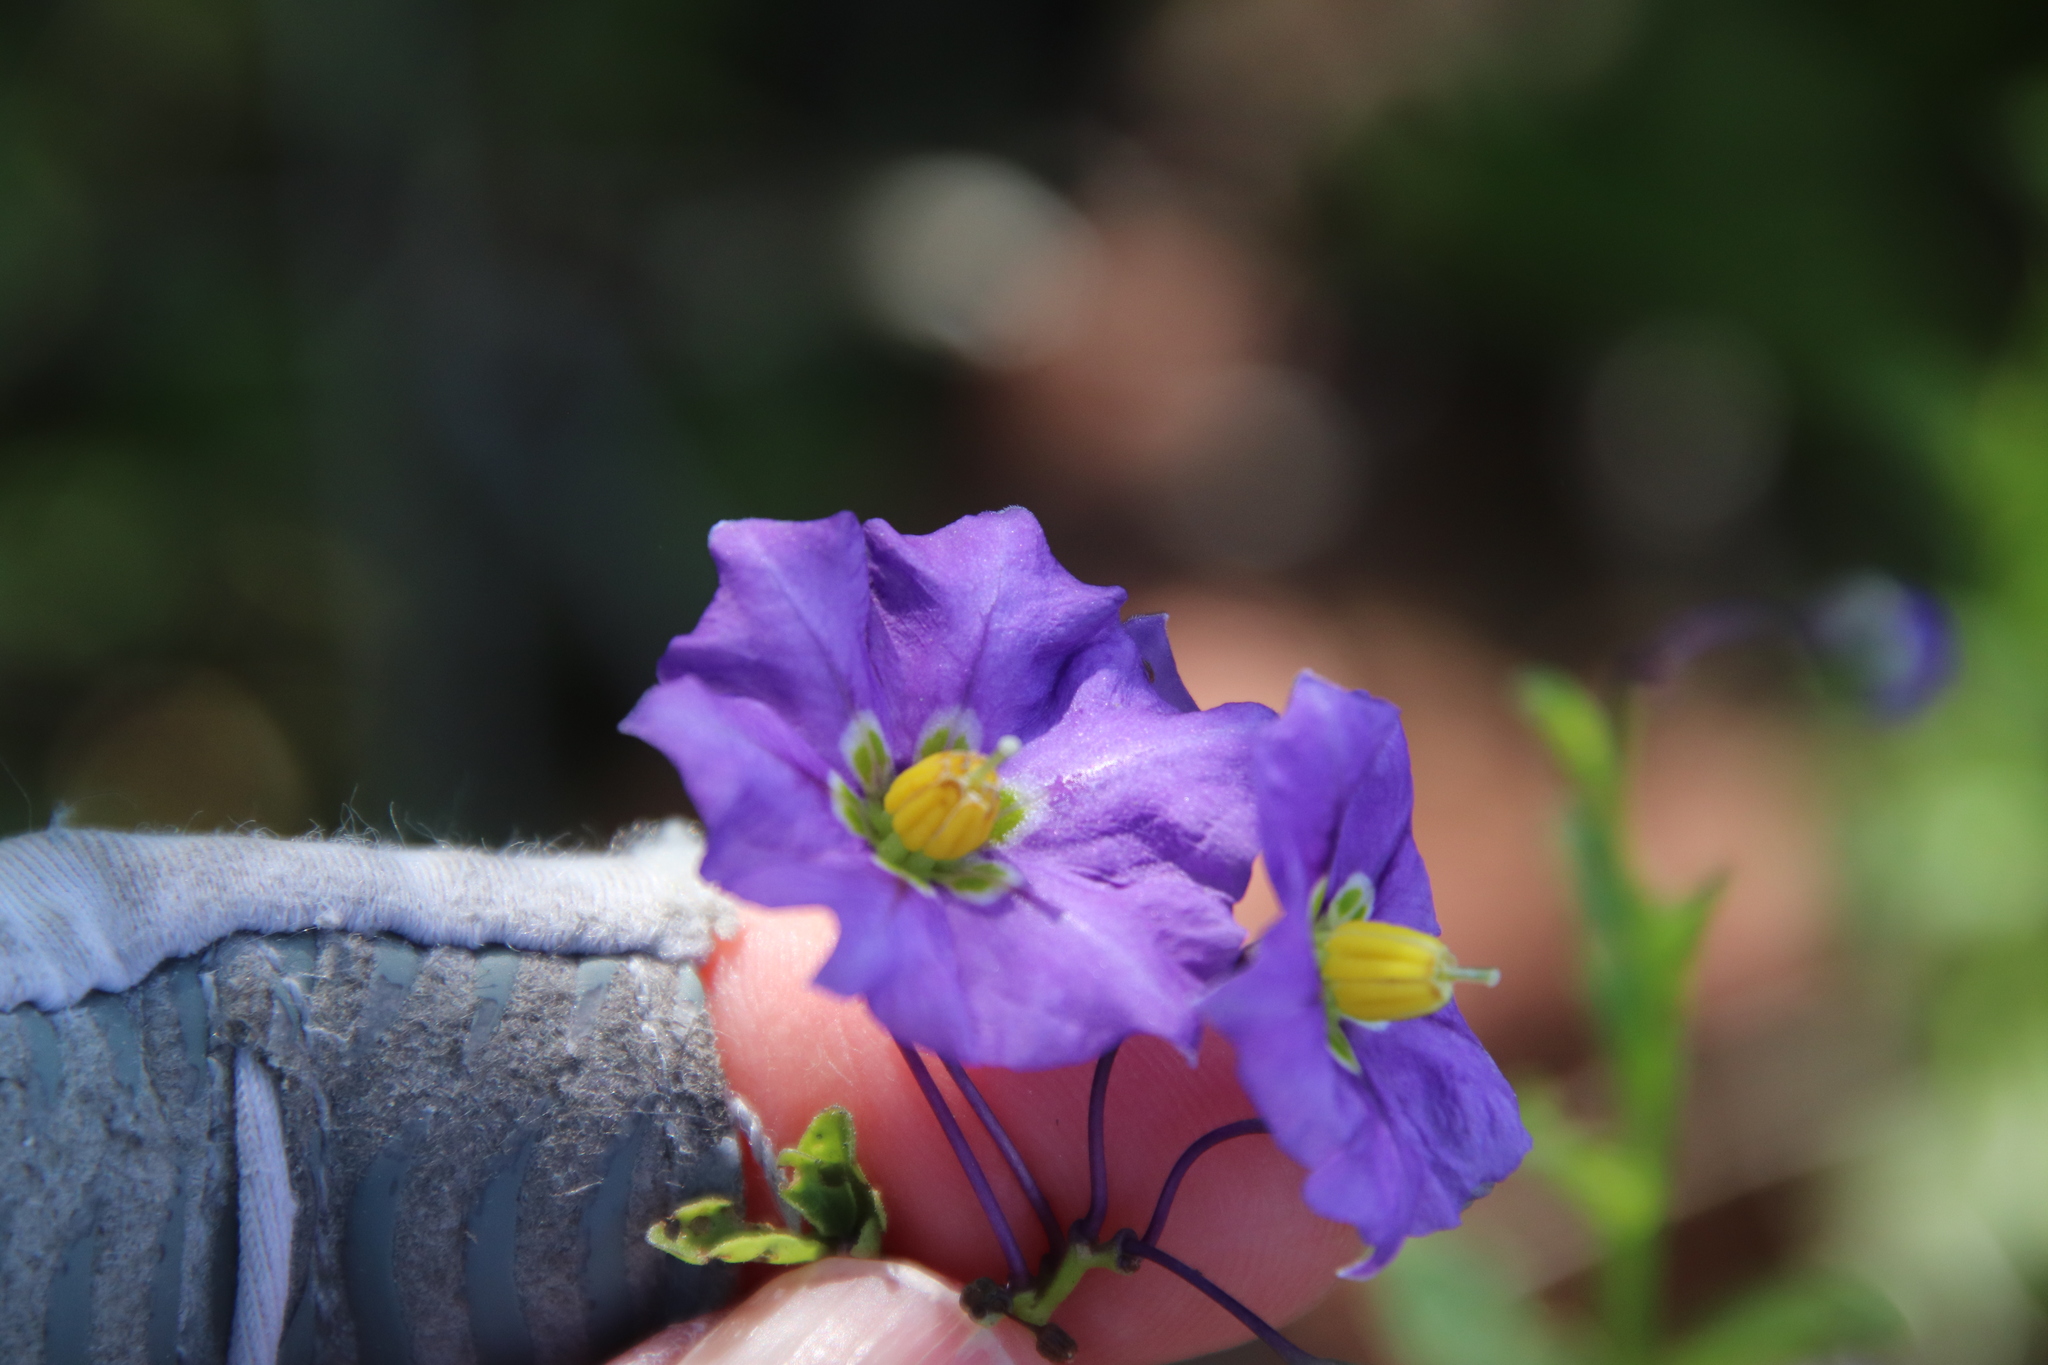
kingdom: Plantae
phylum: Tracheophyta
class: Magnoliopsida
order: Solanales
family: Solanaceae
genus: Solanum
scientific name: Solanum umbelliferum
